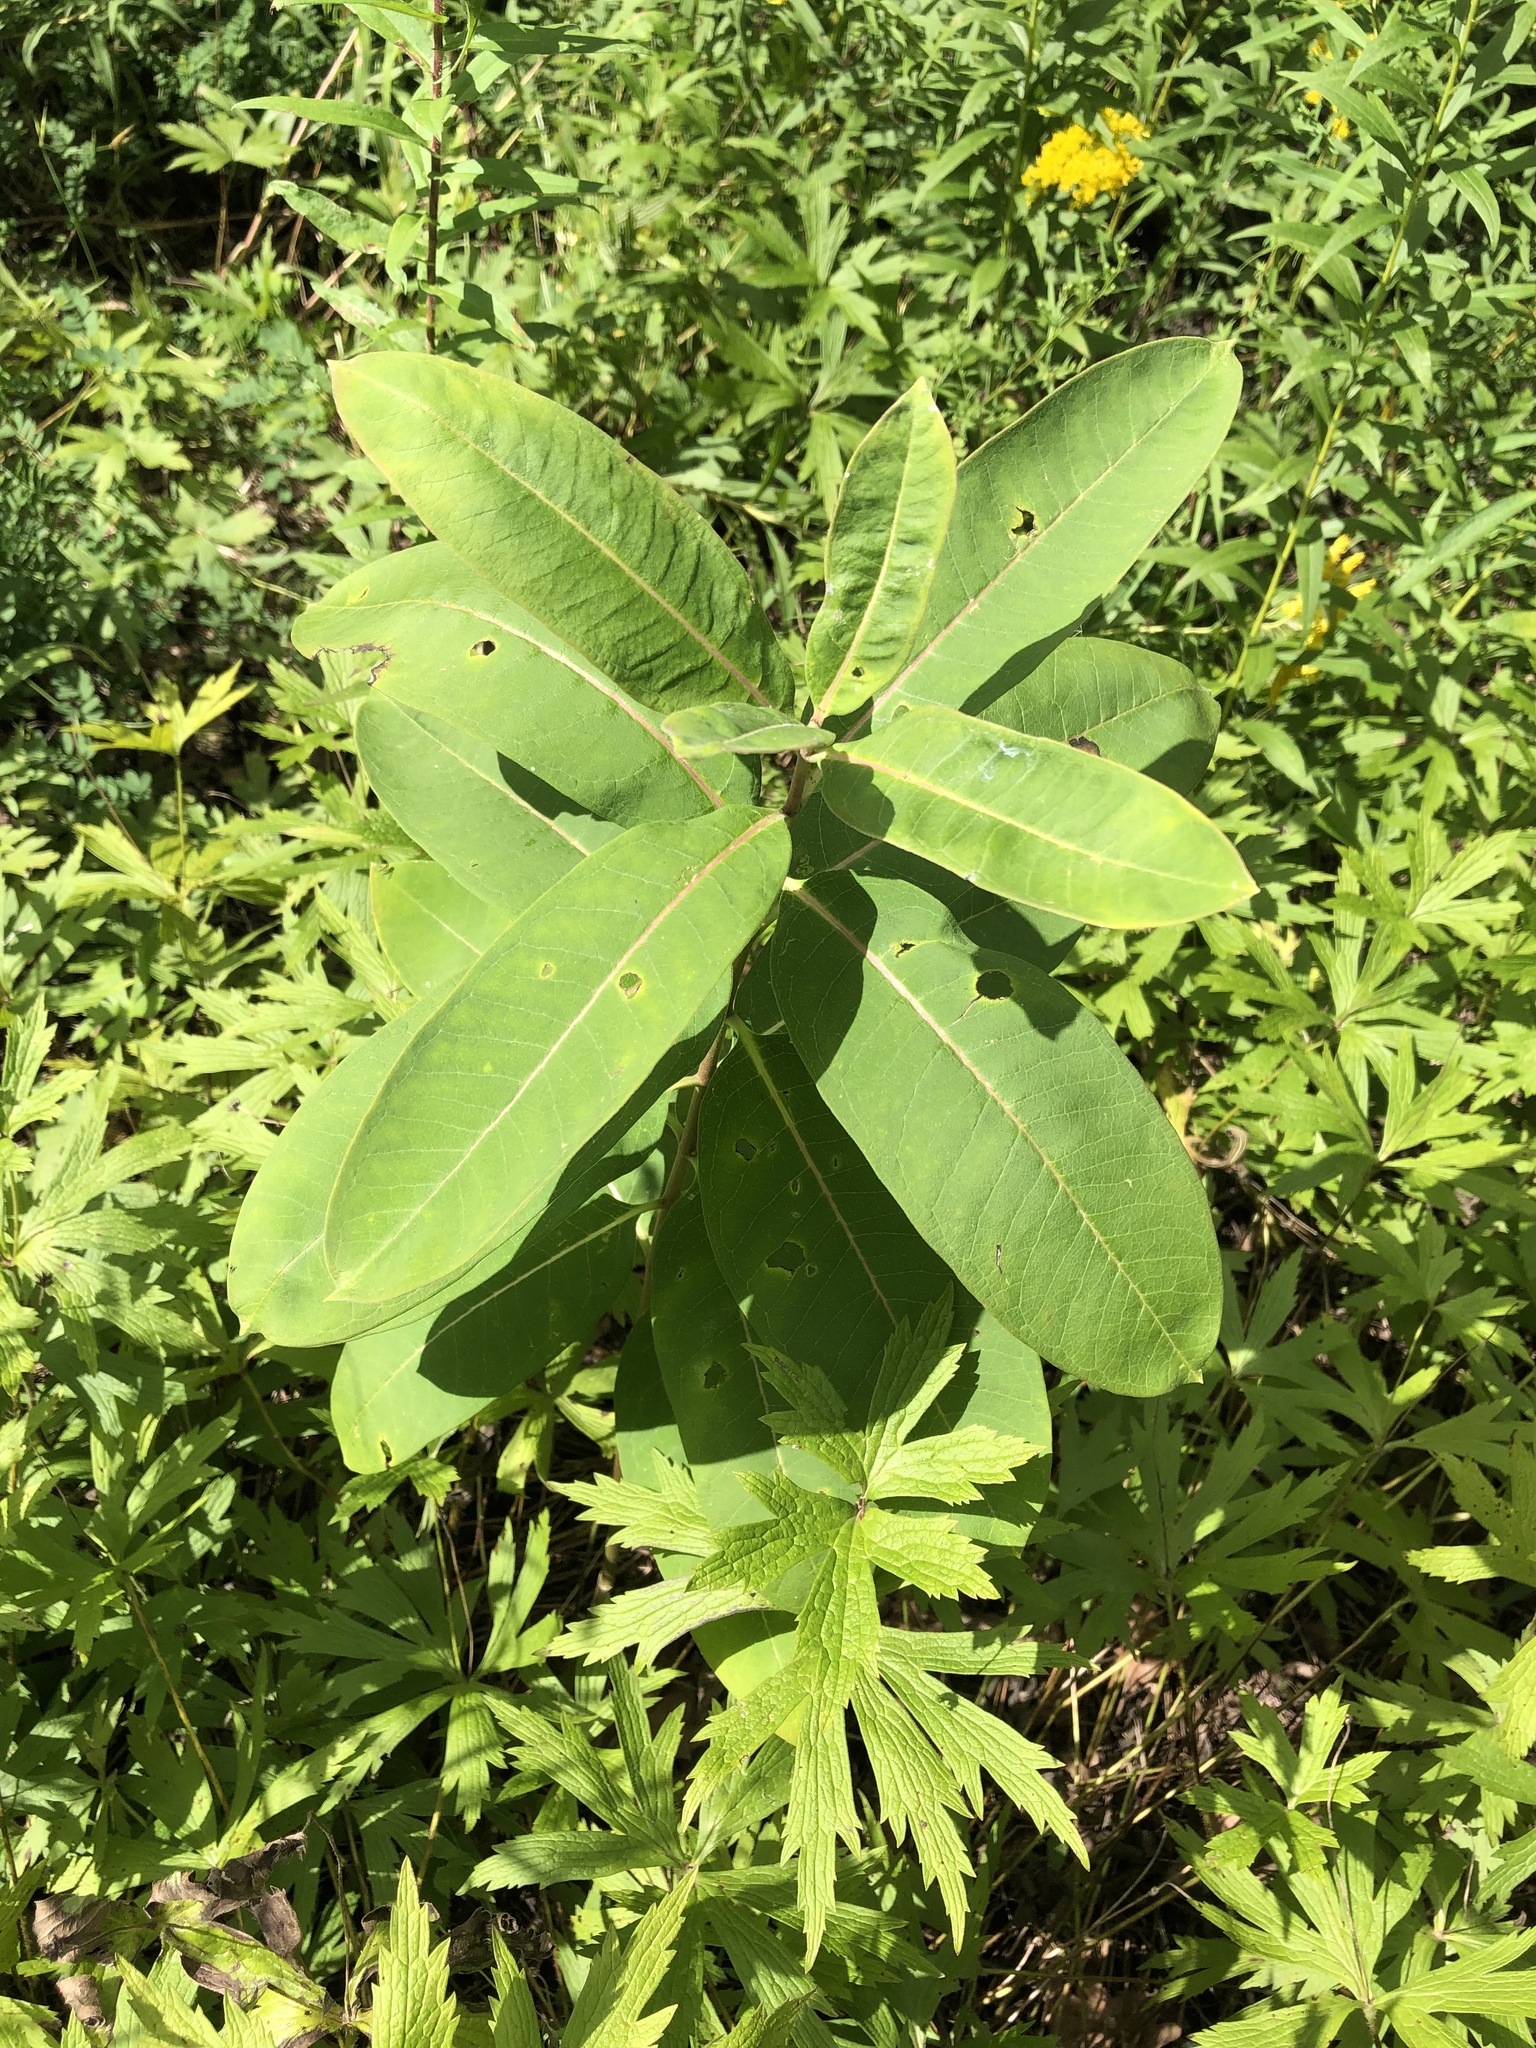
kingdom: Plantae
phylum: Tracheophyta
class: Magnoliopsida
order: Gentianales
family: Apocynaceae
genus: Asclepias
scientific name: Asclepias syriaca
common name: Common milkweed
